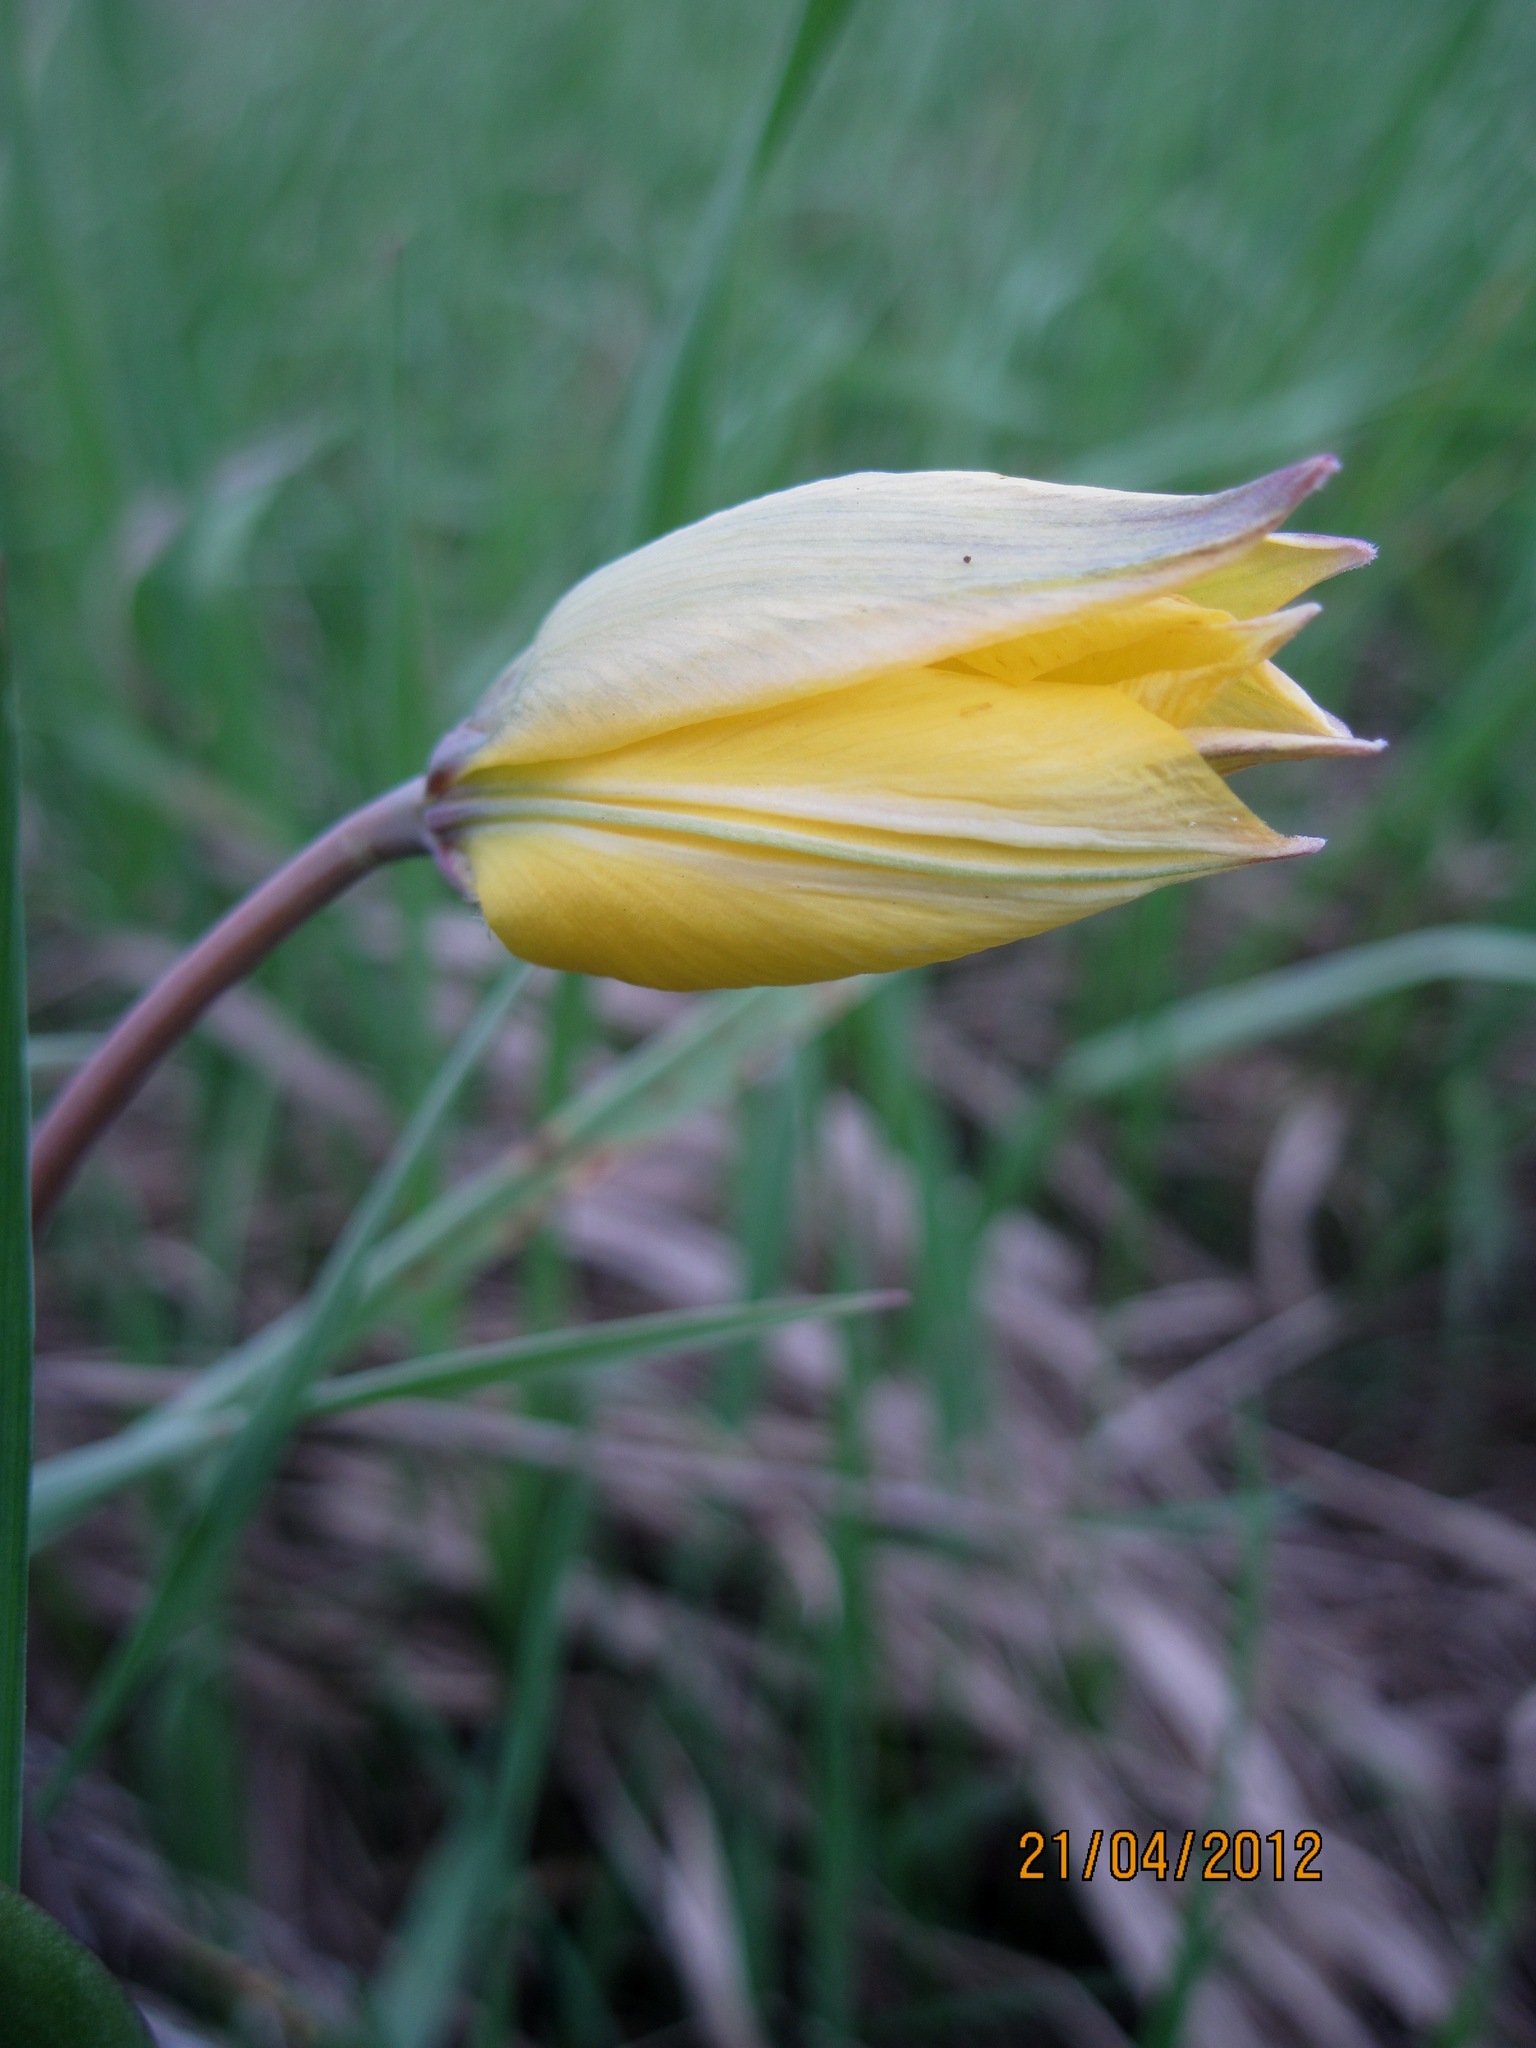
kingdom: Plantae
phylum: Tracheophyta
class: Liliopsida
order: Liliales
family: Liliaceae
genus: Tulipa
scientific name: Tulipa suaveolens
